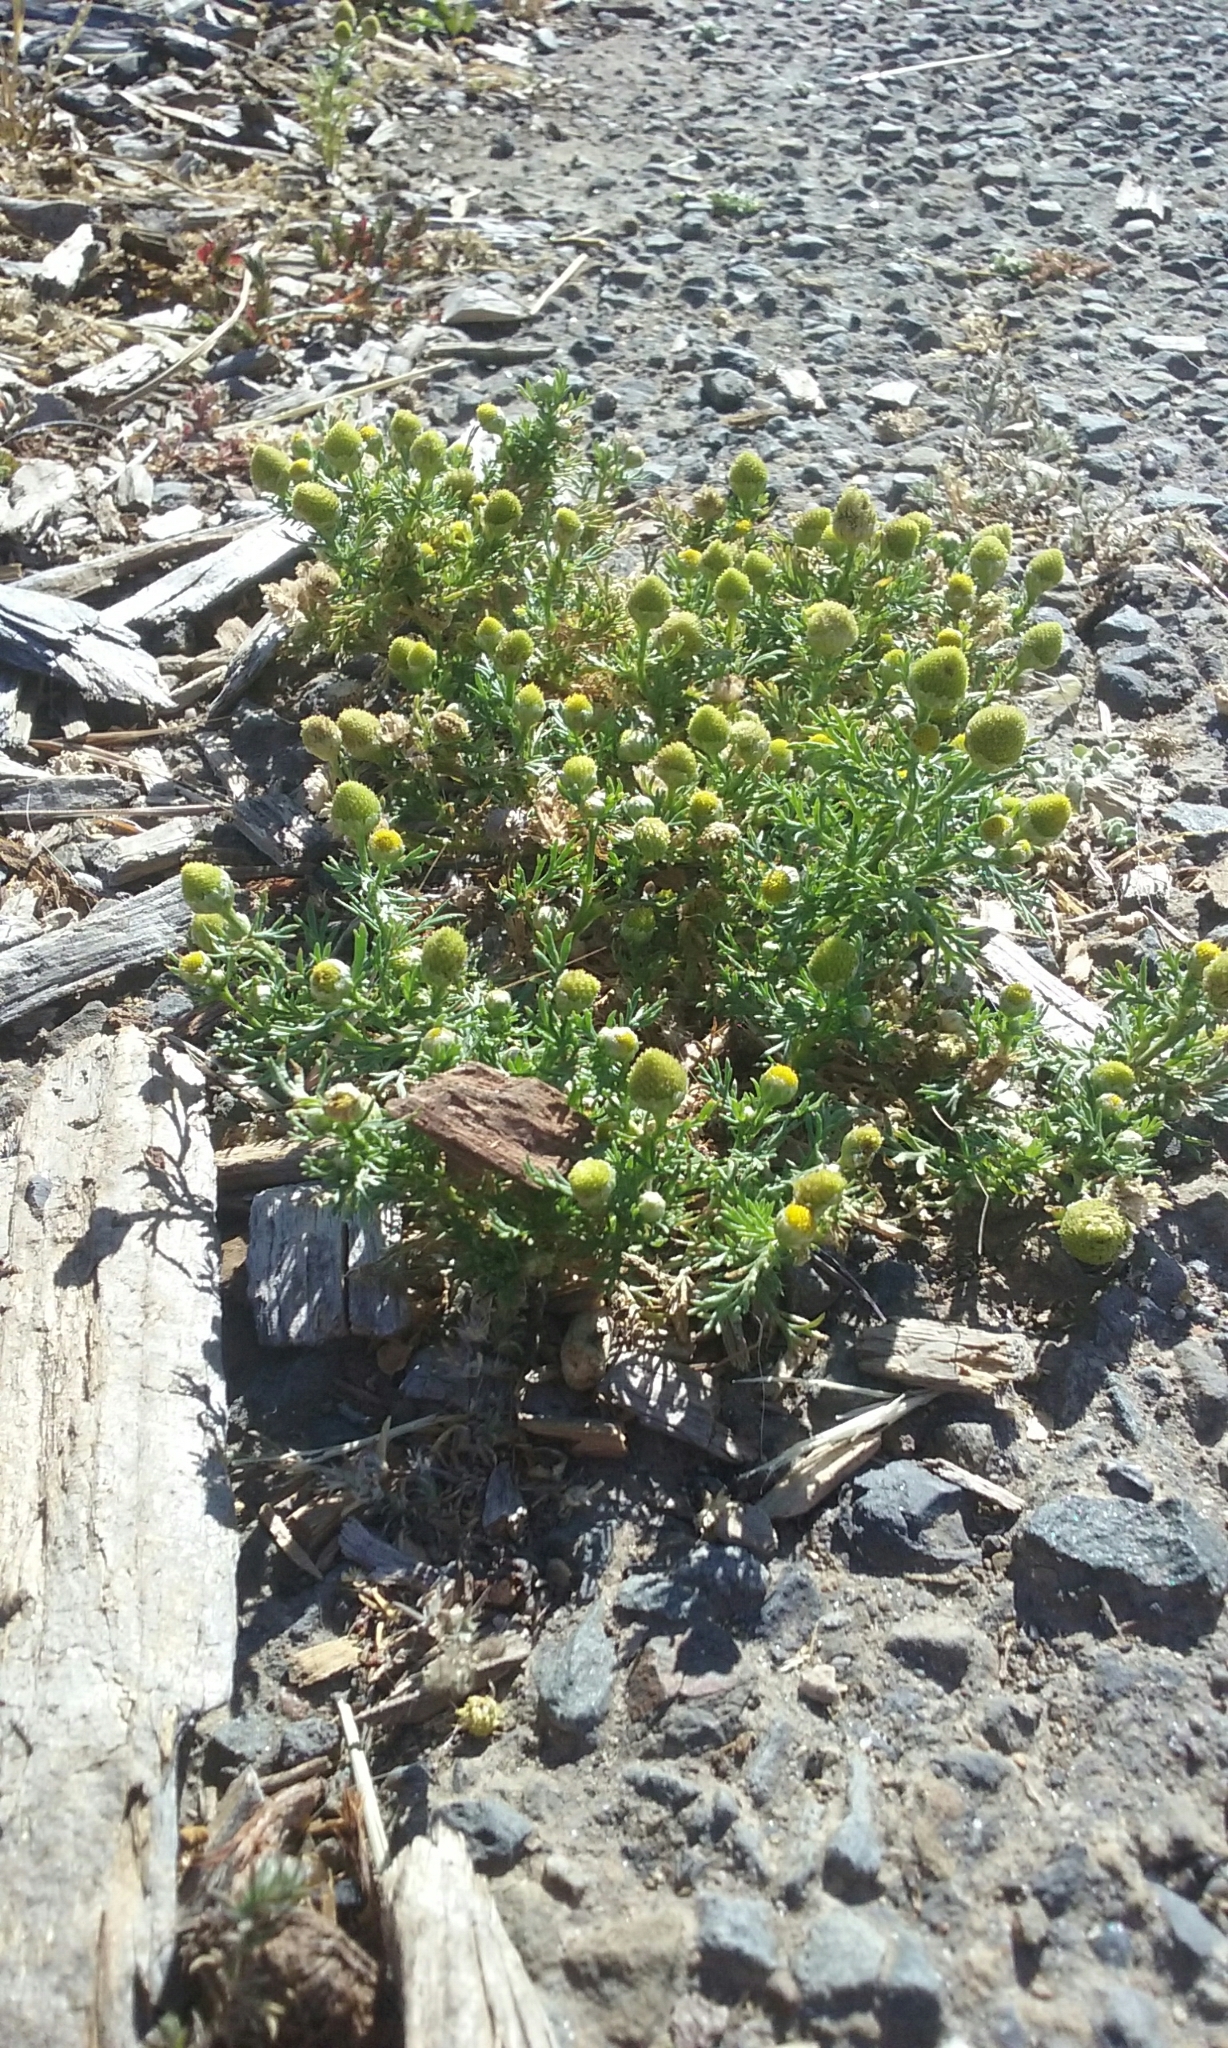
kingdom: Plantae
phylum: Tracheophyta
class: Magnoliopsida
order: Asterales
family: Asteraceae
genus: Matricaria
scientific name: Matricaria discoidea
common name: Disc mayweed
